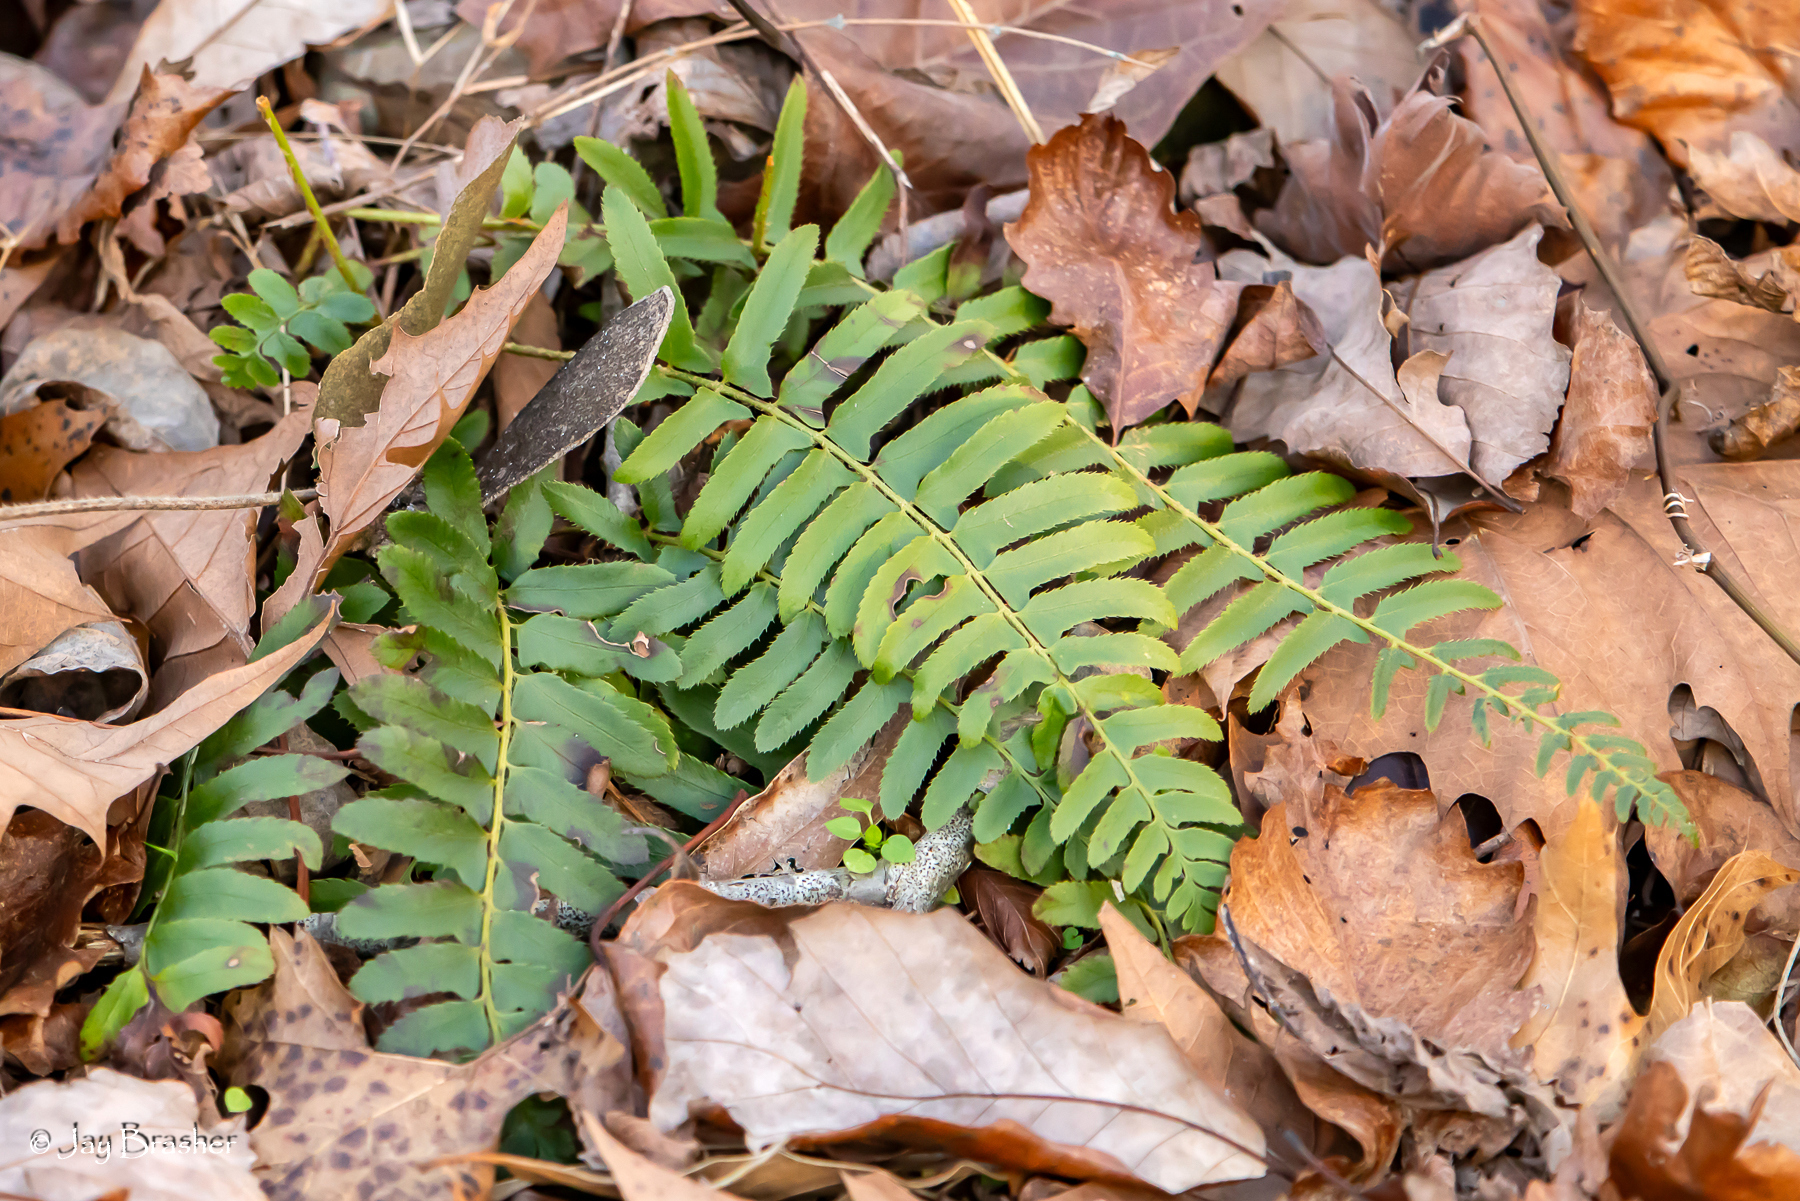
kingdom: Plantae
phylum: Tracheophyta
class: Polypodiopsida
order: Polypodiales
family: Dryopteridaceae
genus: Polystichum
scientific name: Polystichum acrostichoides
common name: Christmas fern
